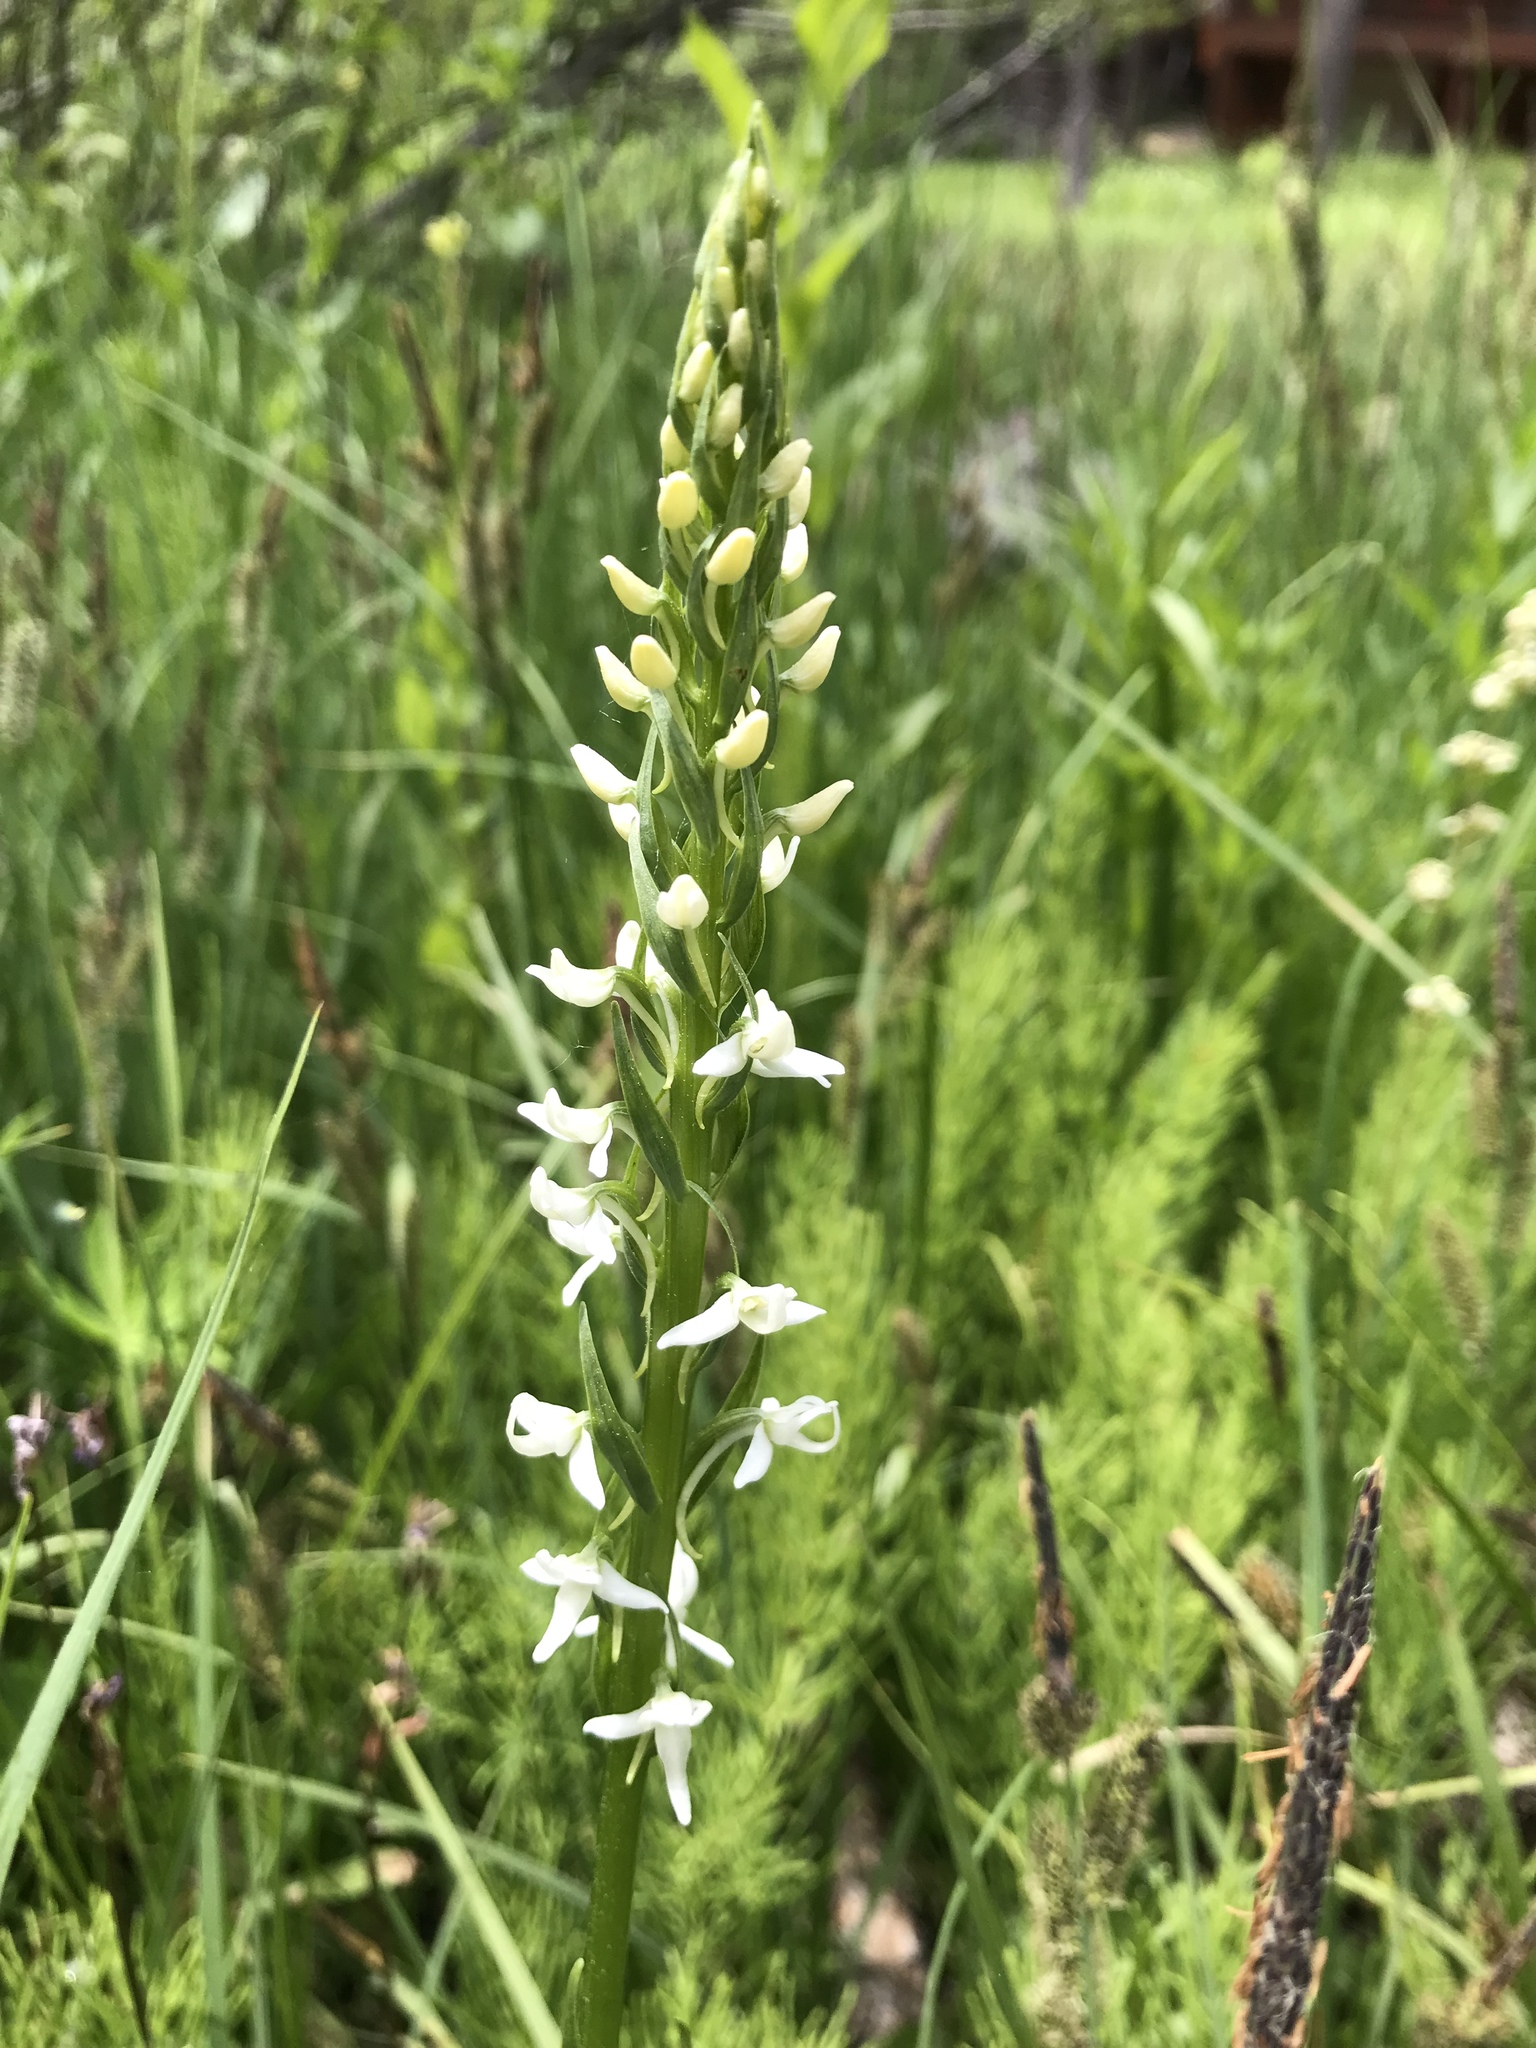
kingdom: Plantae
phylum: Tracheophyta
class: Liliopsida
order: Asparagales
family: Orchidaceae
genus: Platanthera
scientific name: Platanthera dilatata
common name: Bog candles
